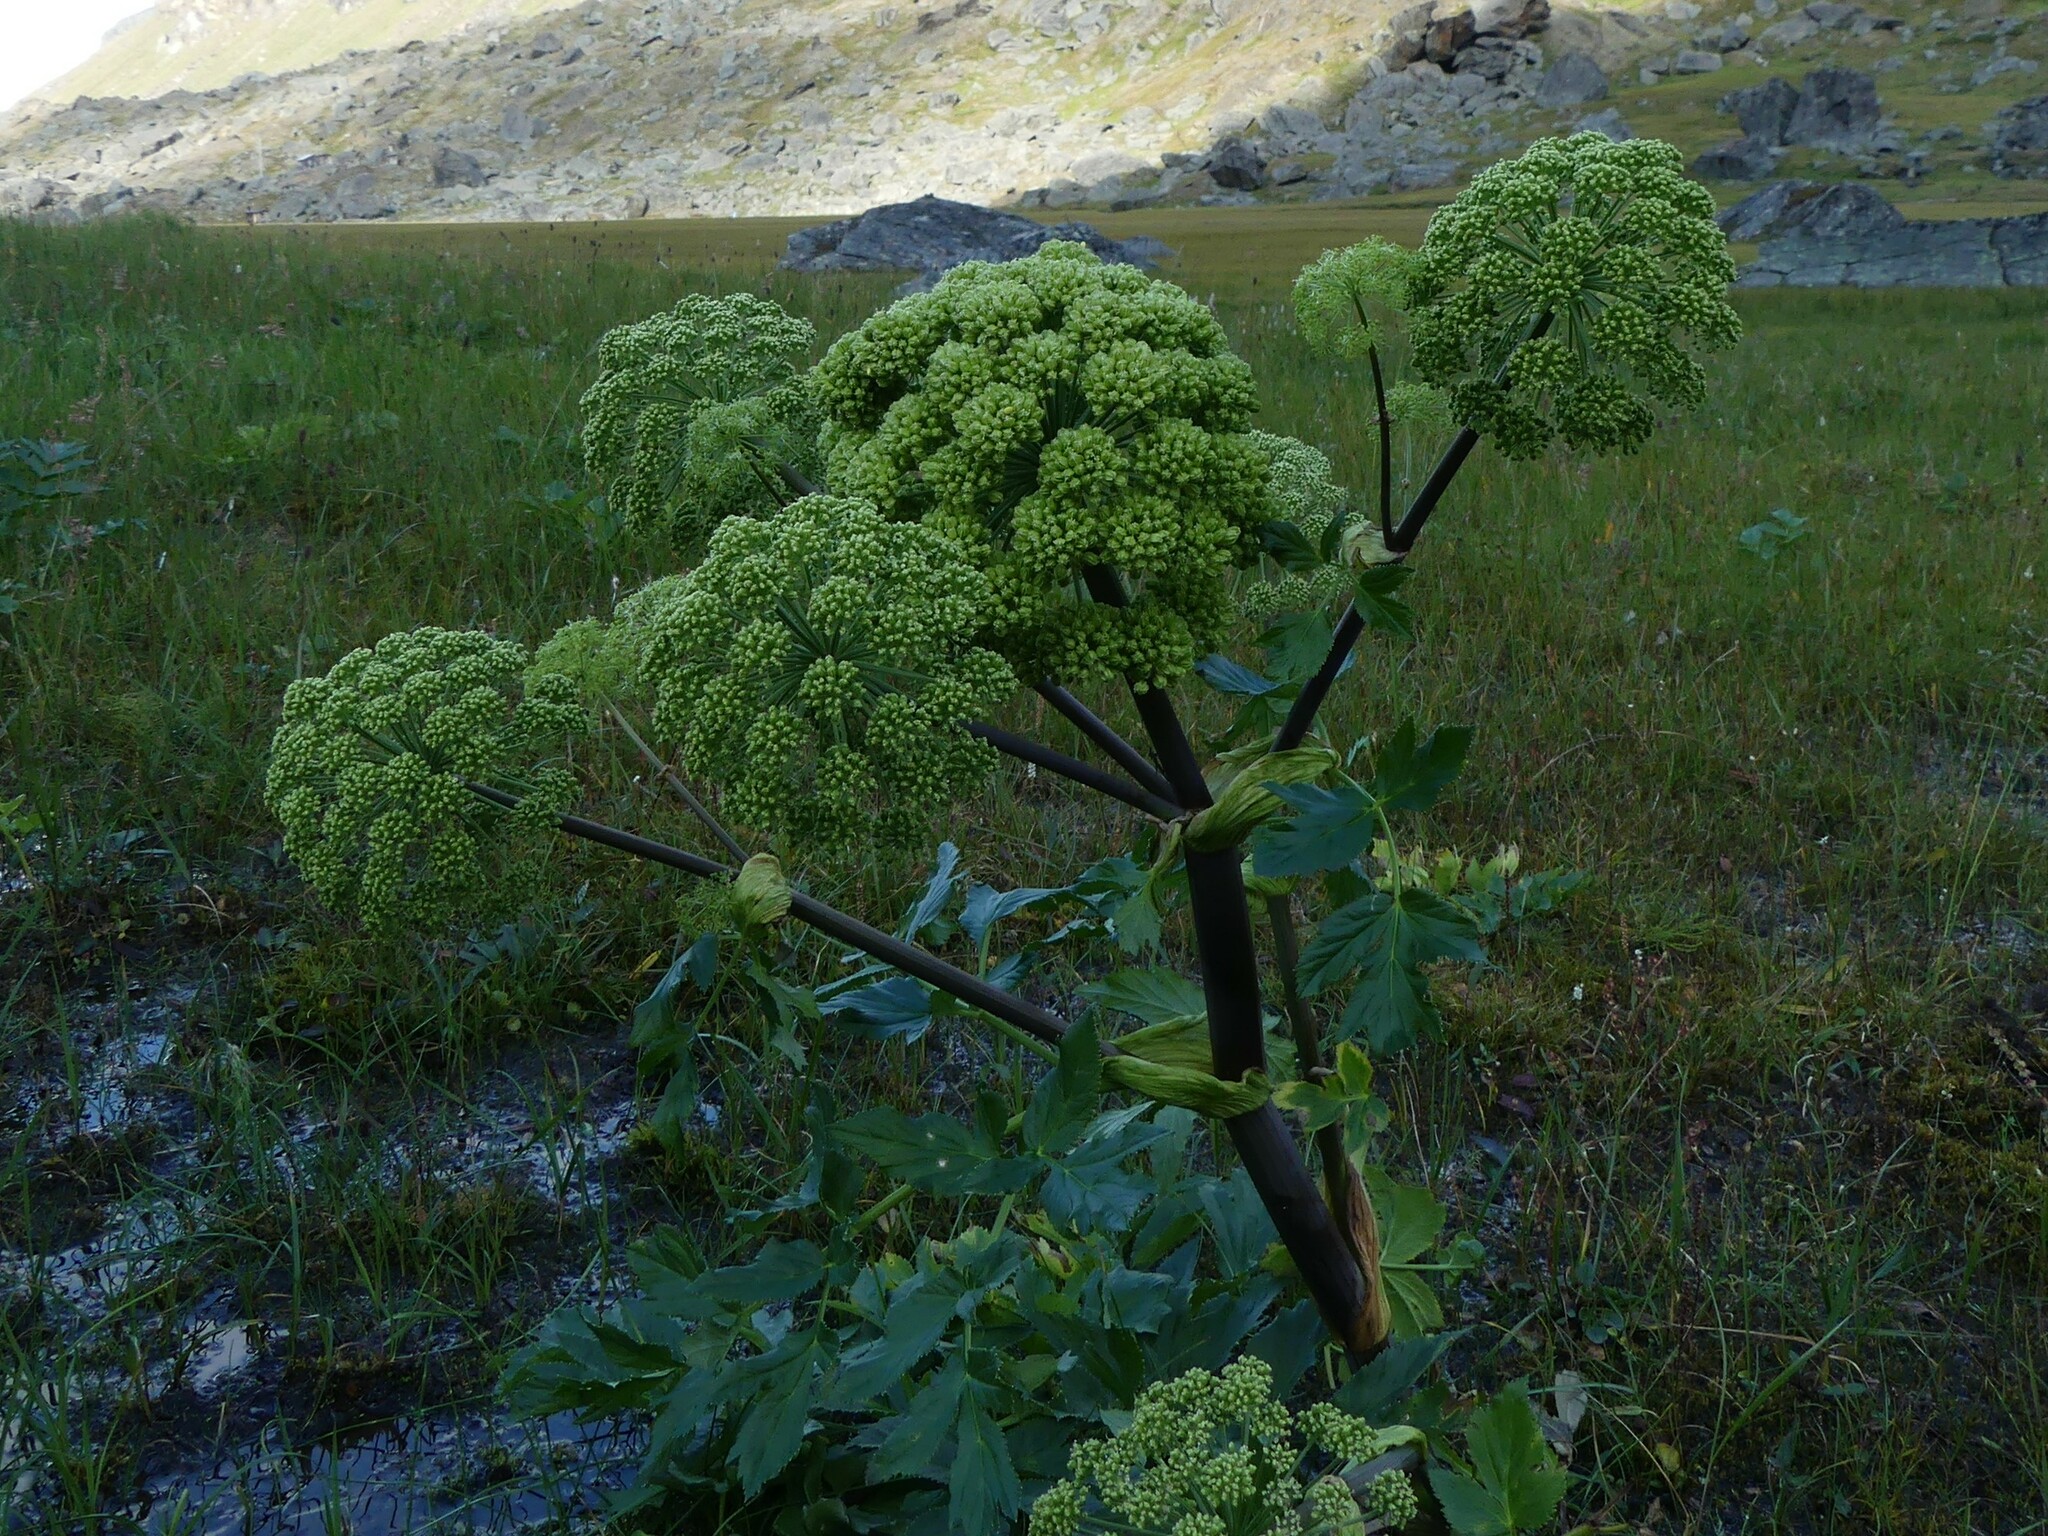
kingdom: Plantae
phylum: Tracheophyta
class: Magnoliopsida
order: Apiales
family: Apiaceae
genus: Angelica
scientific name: Angelica archangelica
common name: Garden angelica
